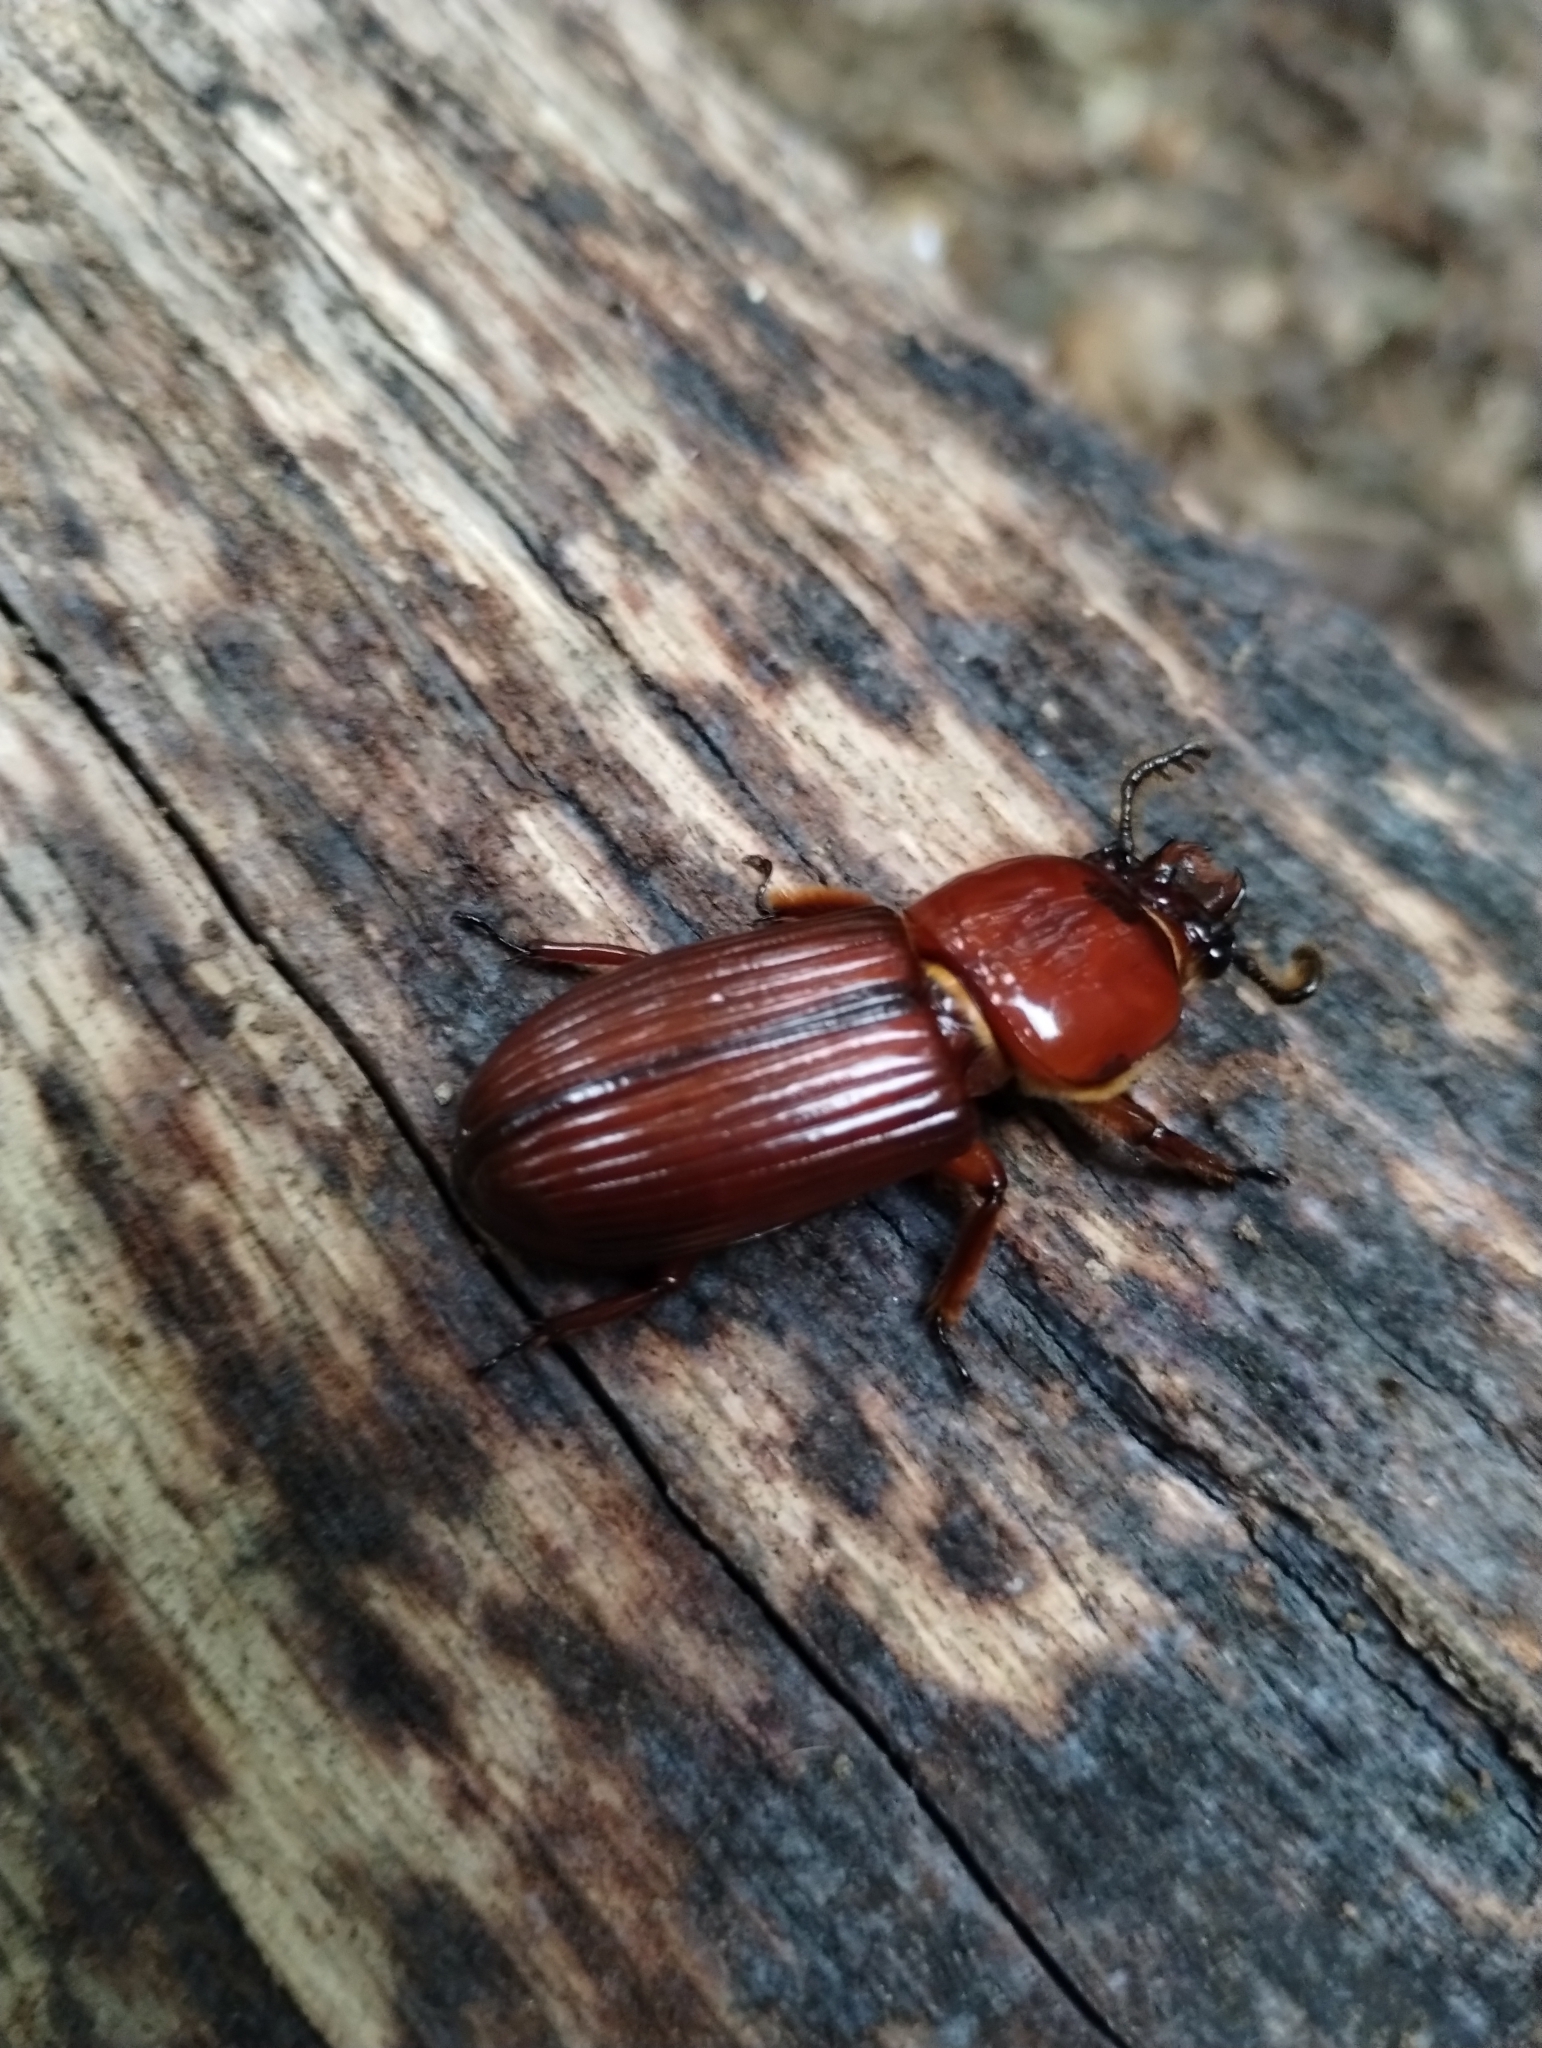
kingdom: Animalia
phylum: Arthropoda
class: Insecta
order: Coleoptera
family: Passalidae
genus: Odontotaenius
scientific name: Odontotaenius disjunctus
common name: Patent leather beetle
